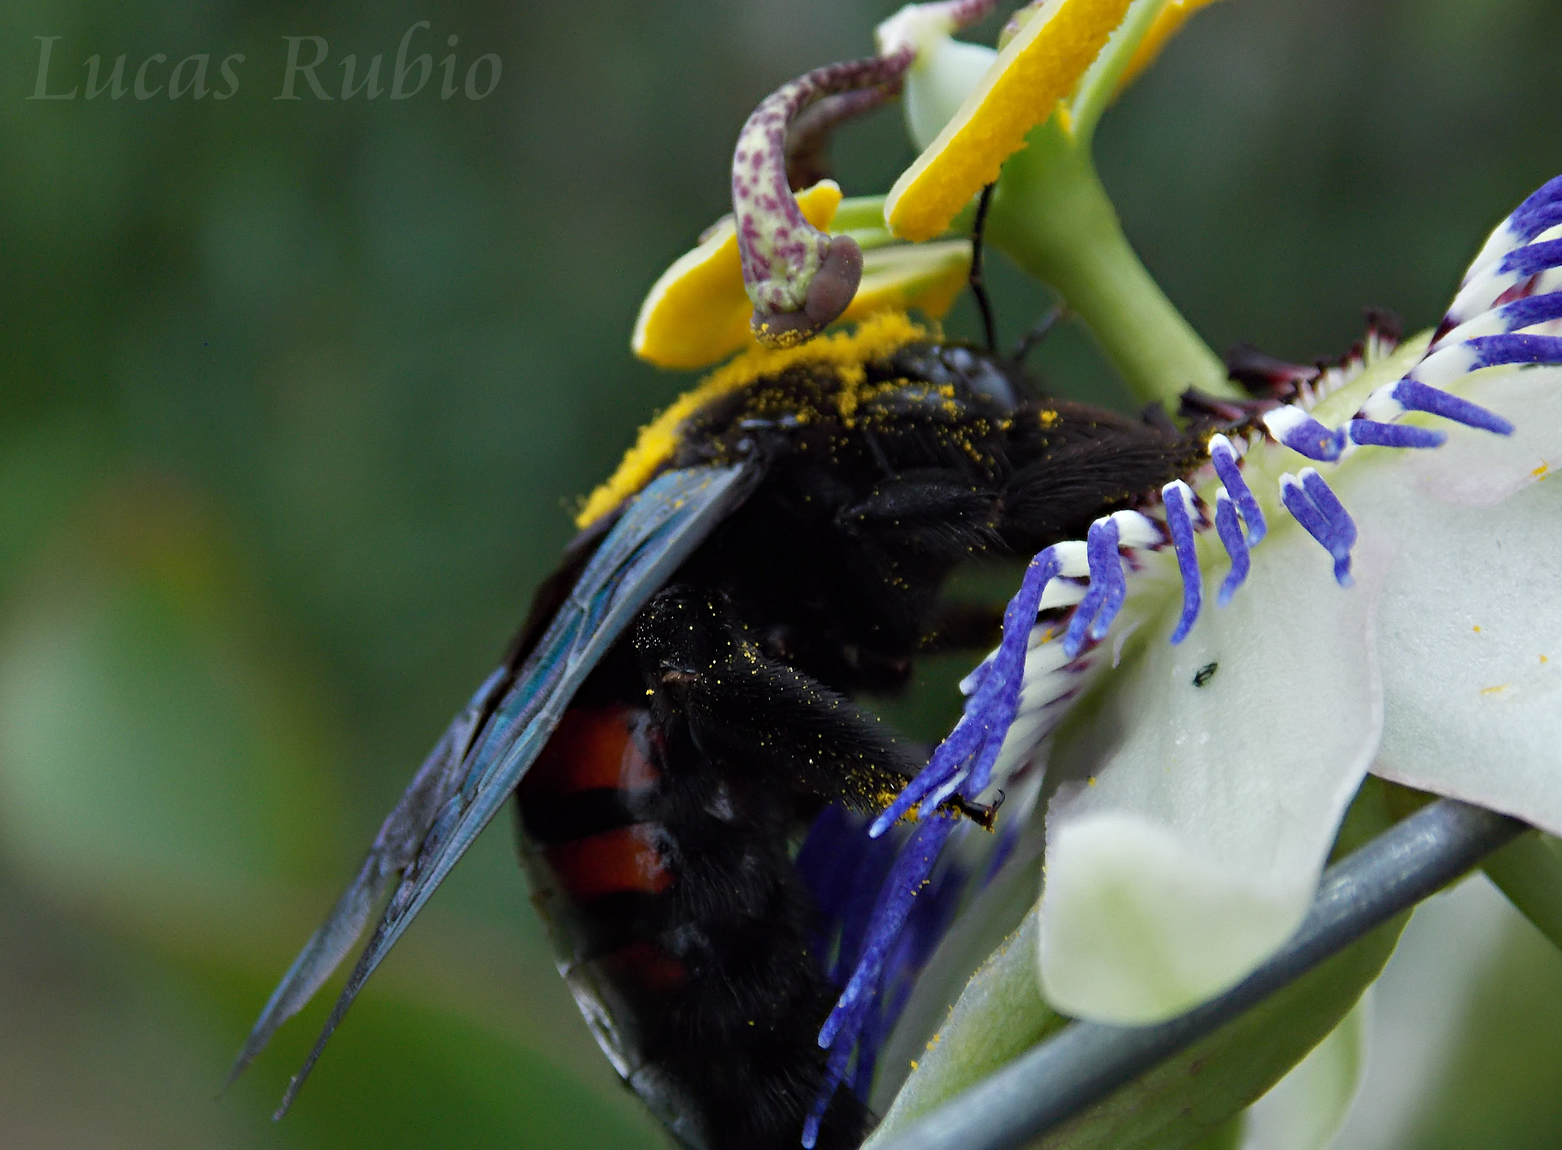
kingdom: Animalia
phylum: Arthropoda
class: Insecta
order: Hymenoptera
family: Apidae
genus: Xylocopa
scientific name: Xylocopa frontalis
